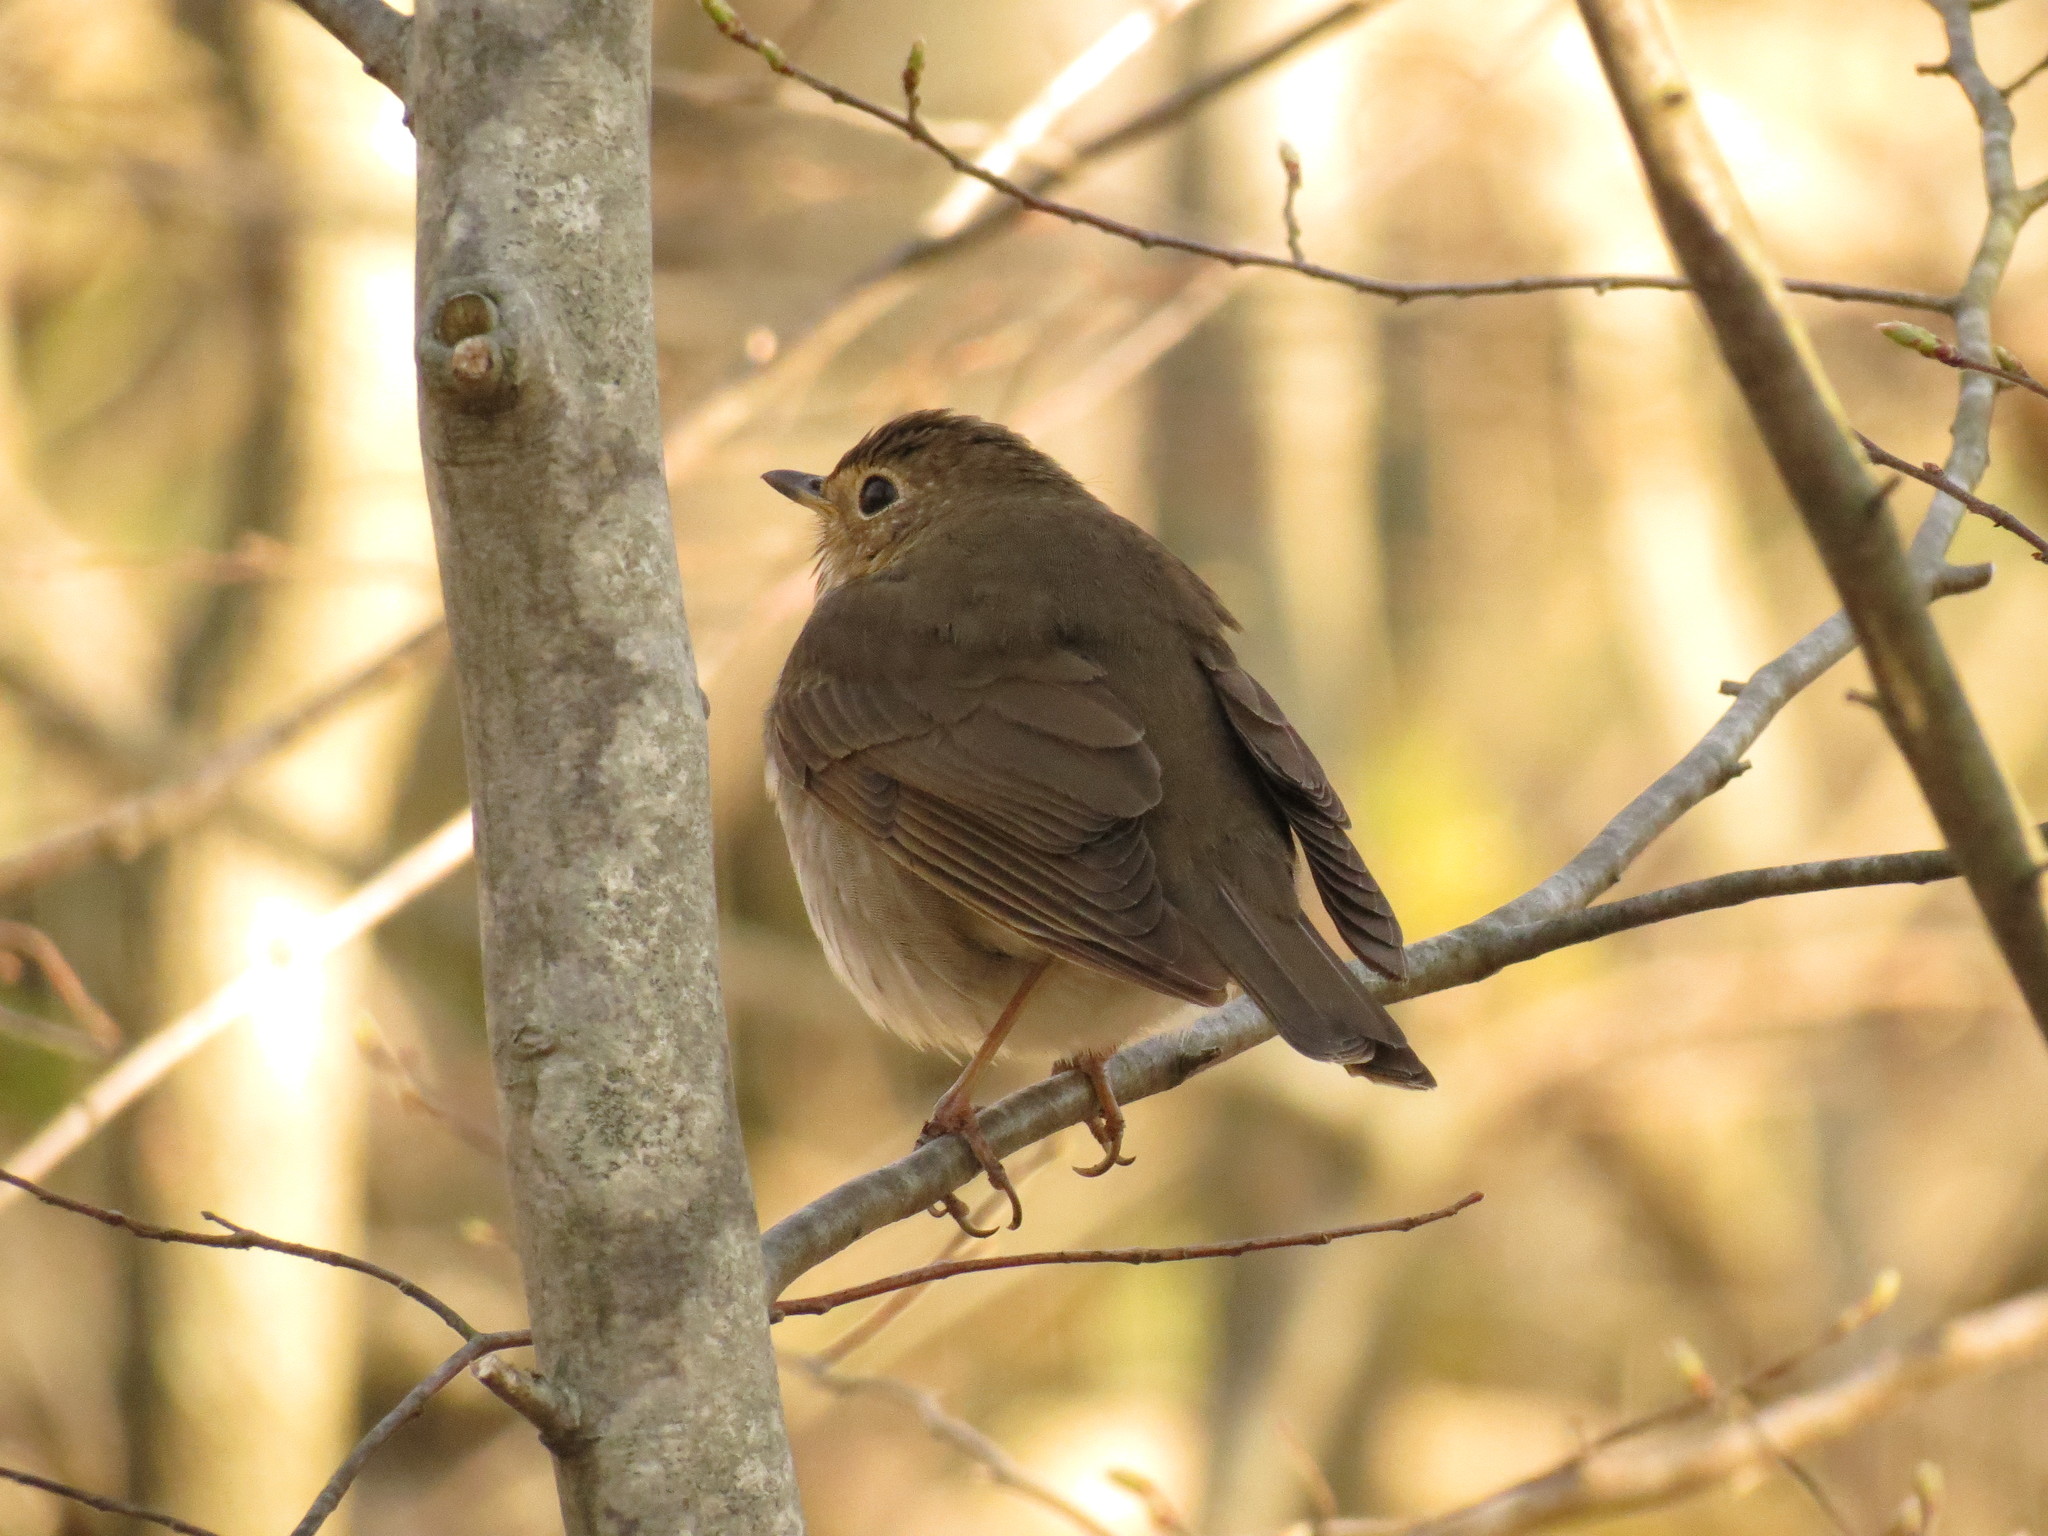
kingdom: Animalia
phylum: Chordata
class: Aves
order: Passeriformes
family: Turdidae
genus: Catharus
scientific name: Catharus ustulatus
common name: Swainson's thrush
